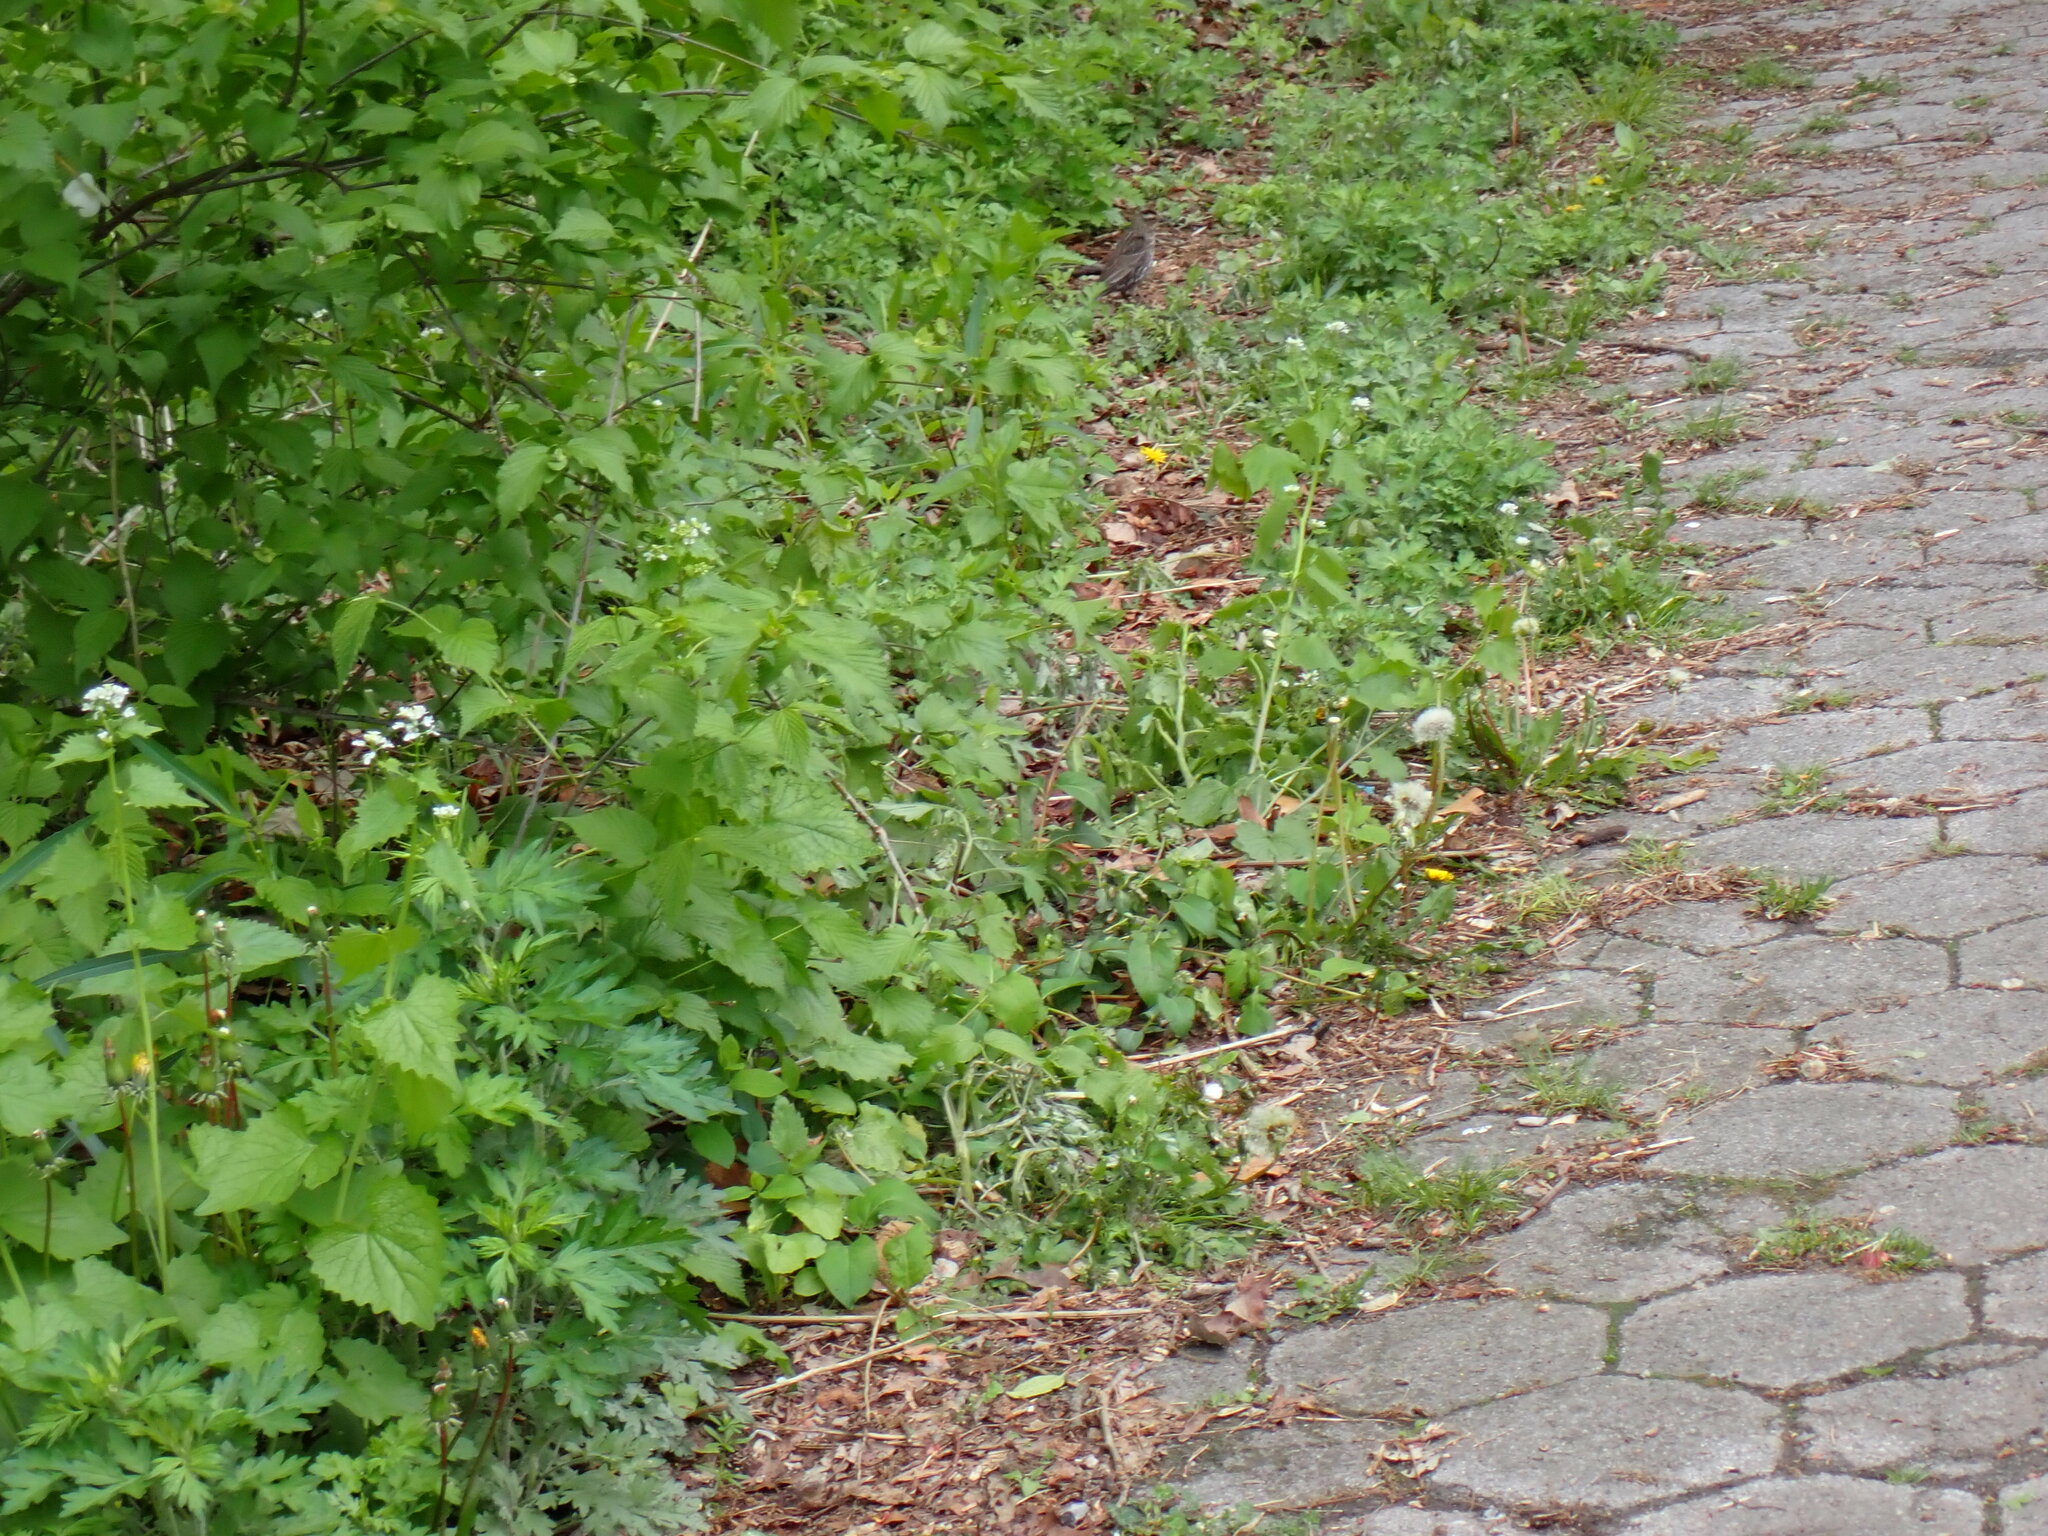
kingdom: Animalia
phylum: Chordata
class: Aves
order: Passeriformes
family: Icteridae
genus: Agelaius
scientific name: Agelaius phoeniceus
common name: Red-winged blackbird
